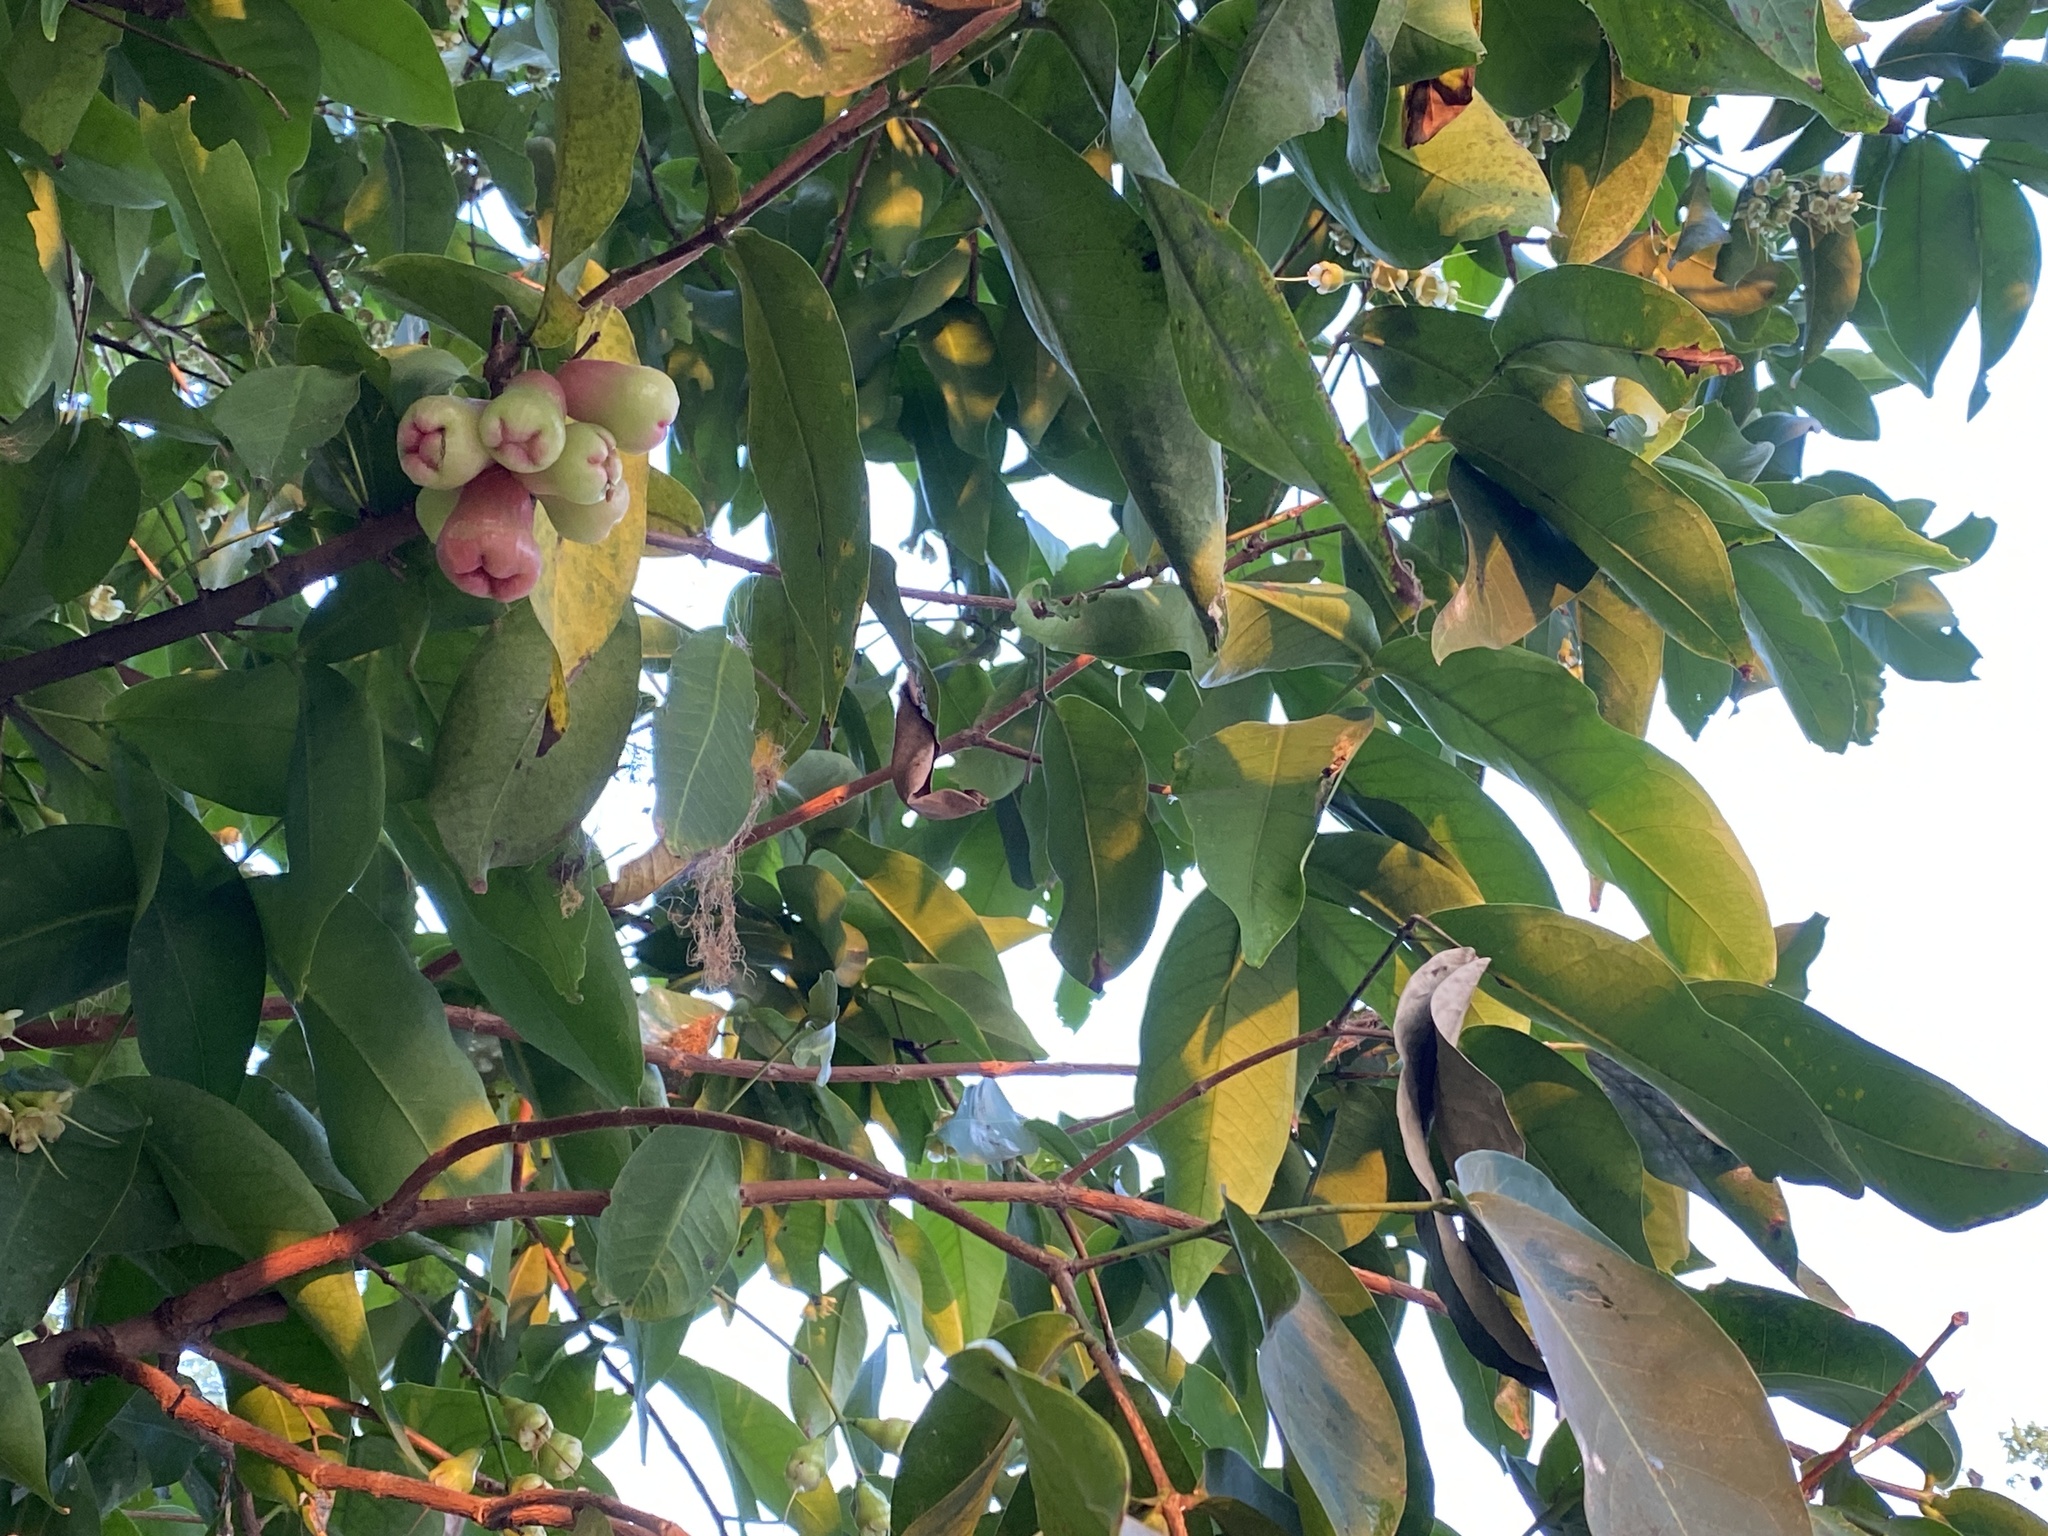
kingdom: Plantae
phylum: Tracheophyta
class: Magnoliopsida
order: Myrtales
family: Myrtaceae
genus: Syzygium
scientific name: Syzygium samarangense
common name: Semarang rose-apple
